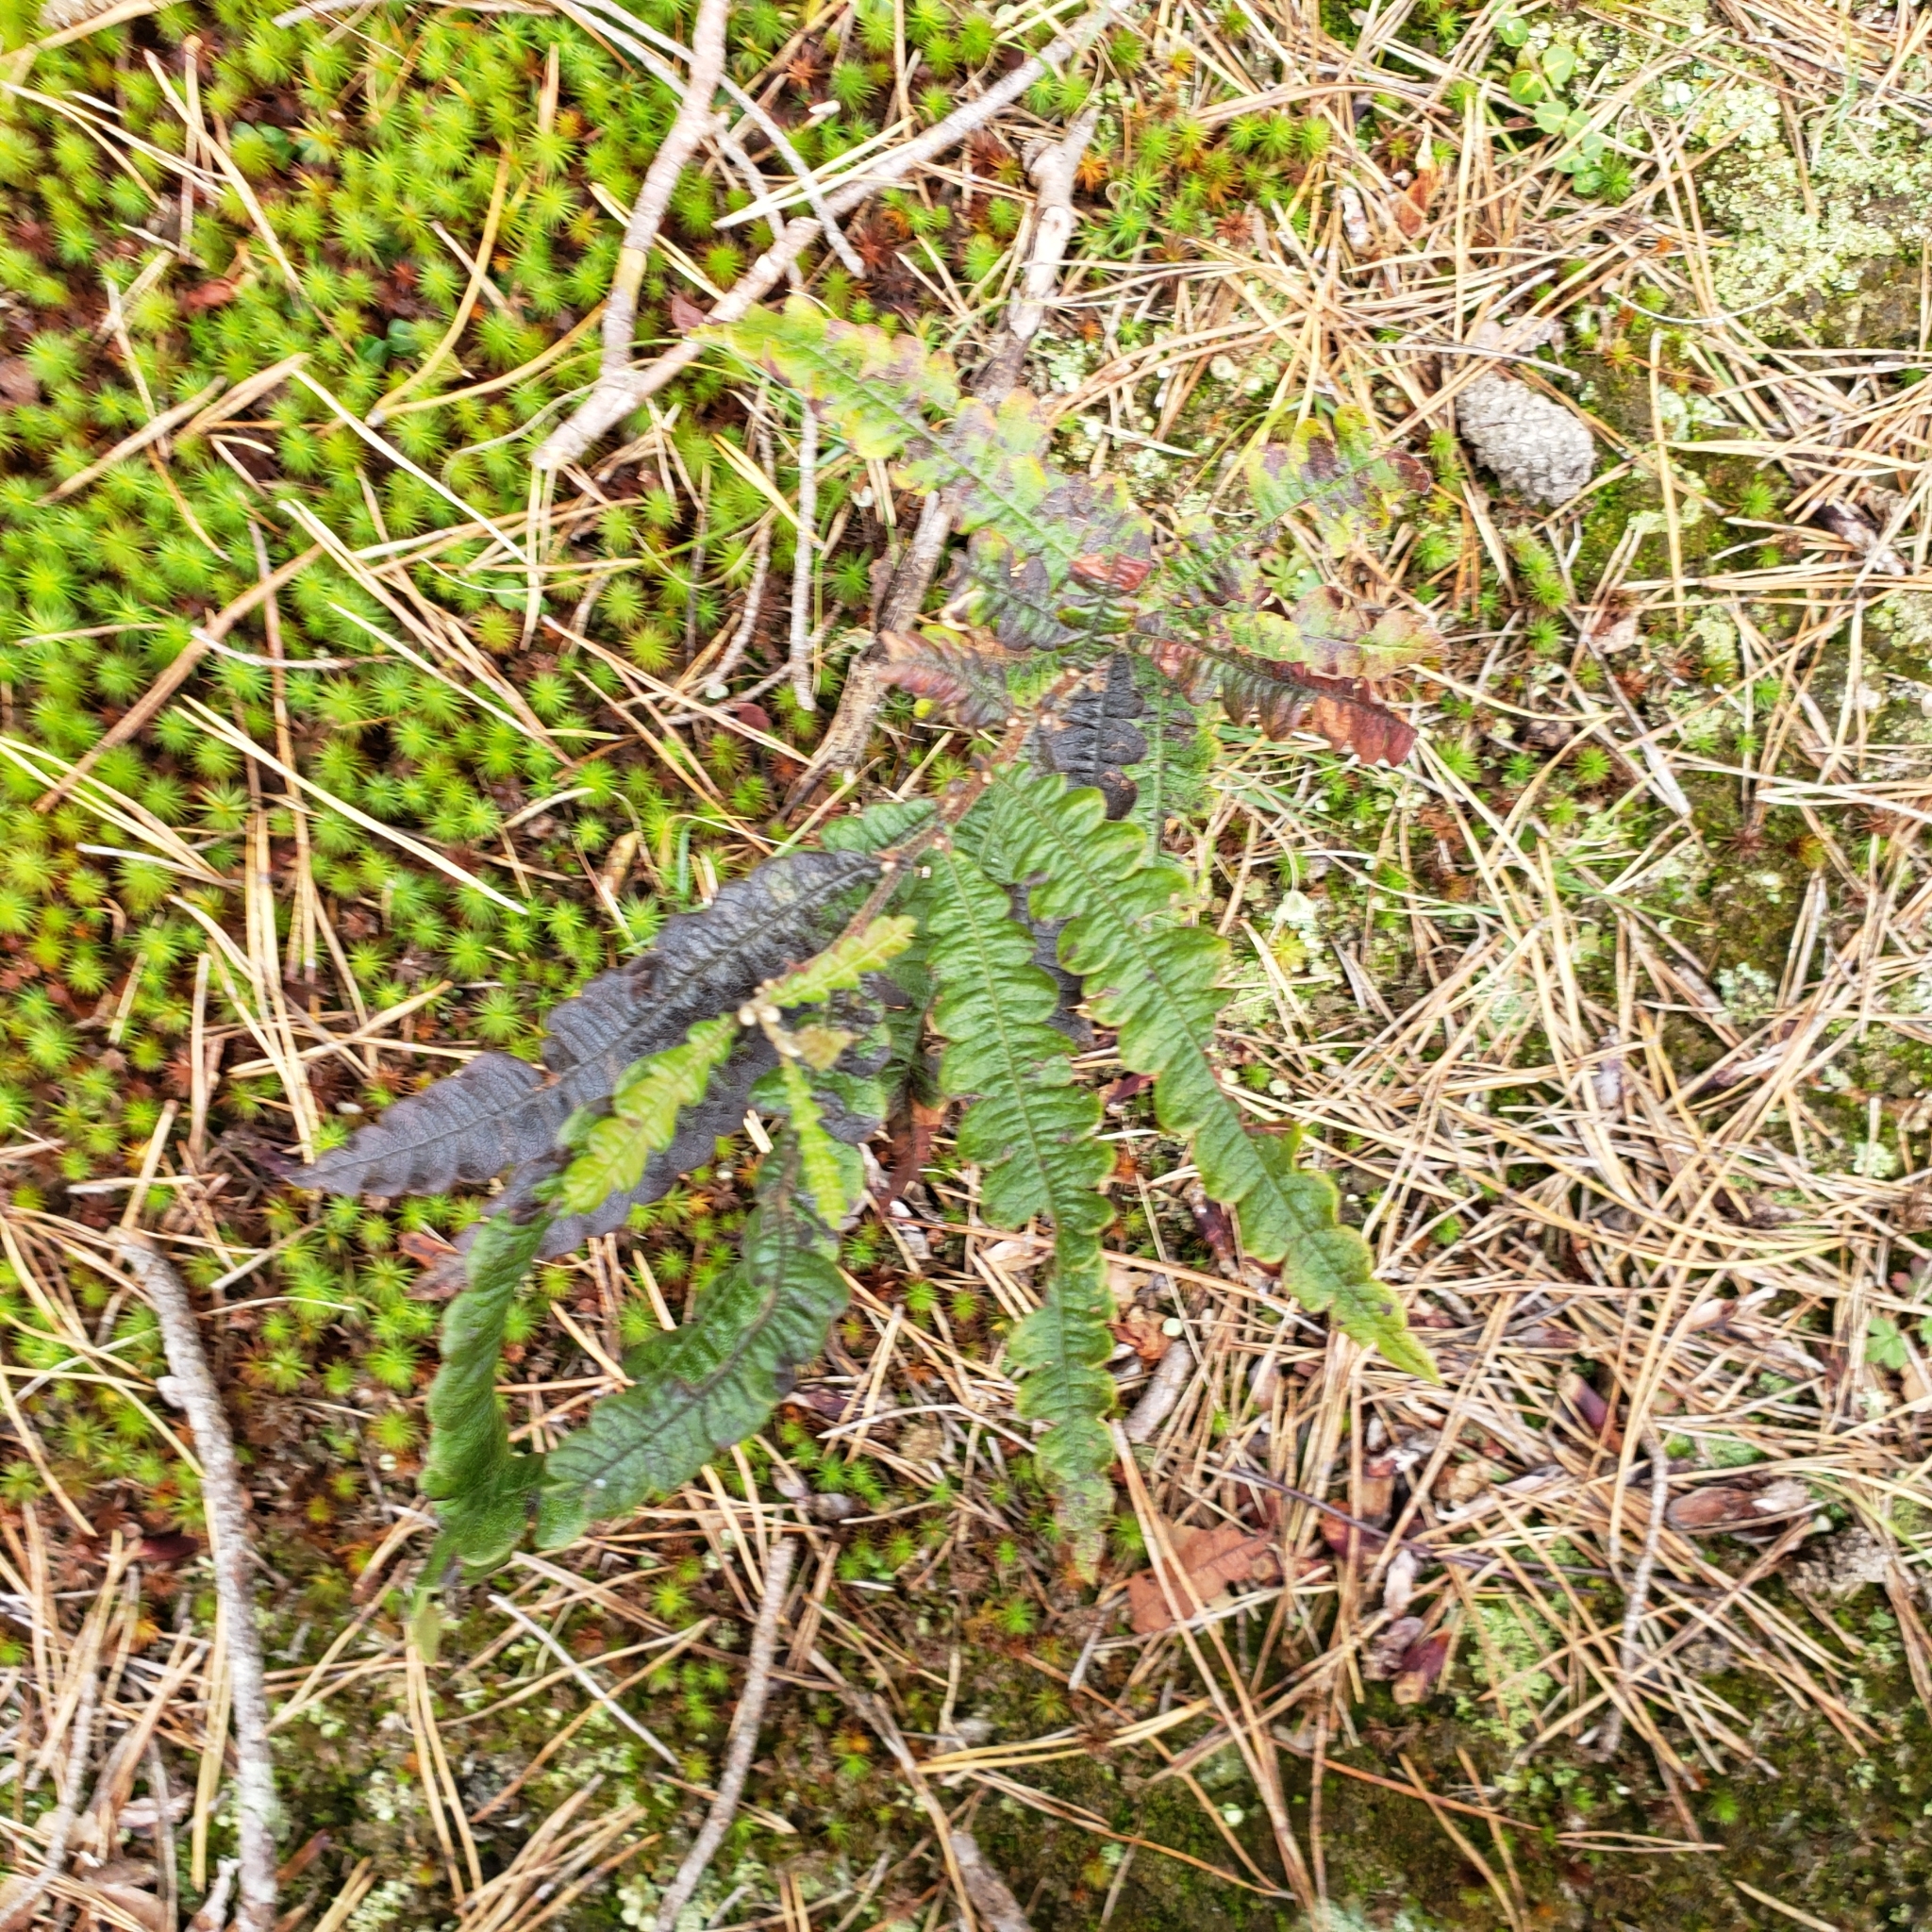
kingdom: Plantae
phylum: Tracheophyta
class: Magnoliopsida
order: Fagales
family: Myricaceae
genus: Comptonia
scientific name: Comptonia peregrina
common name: Sweet-fern
